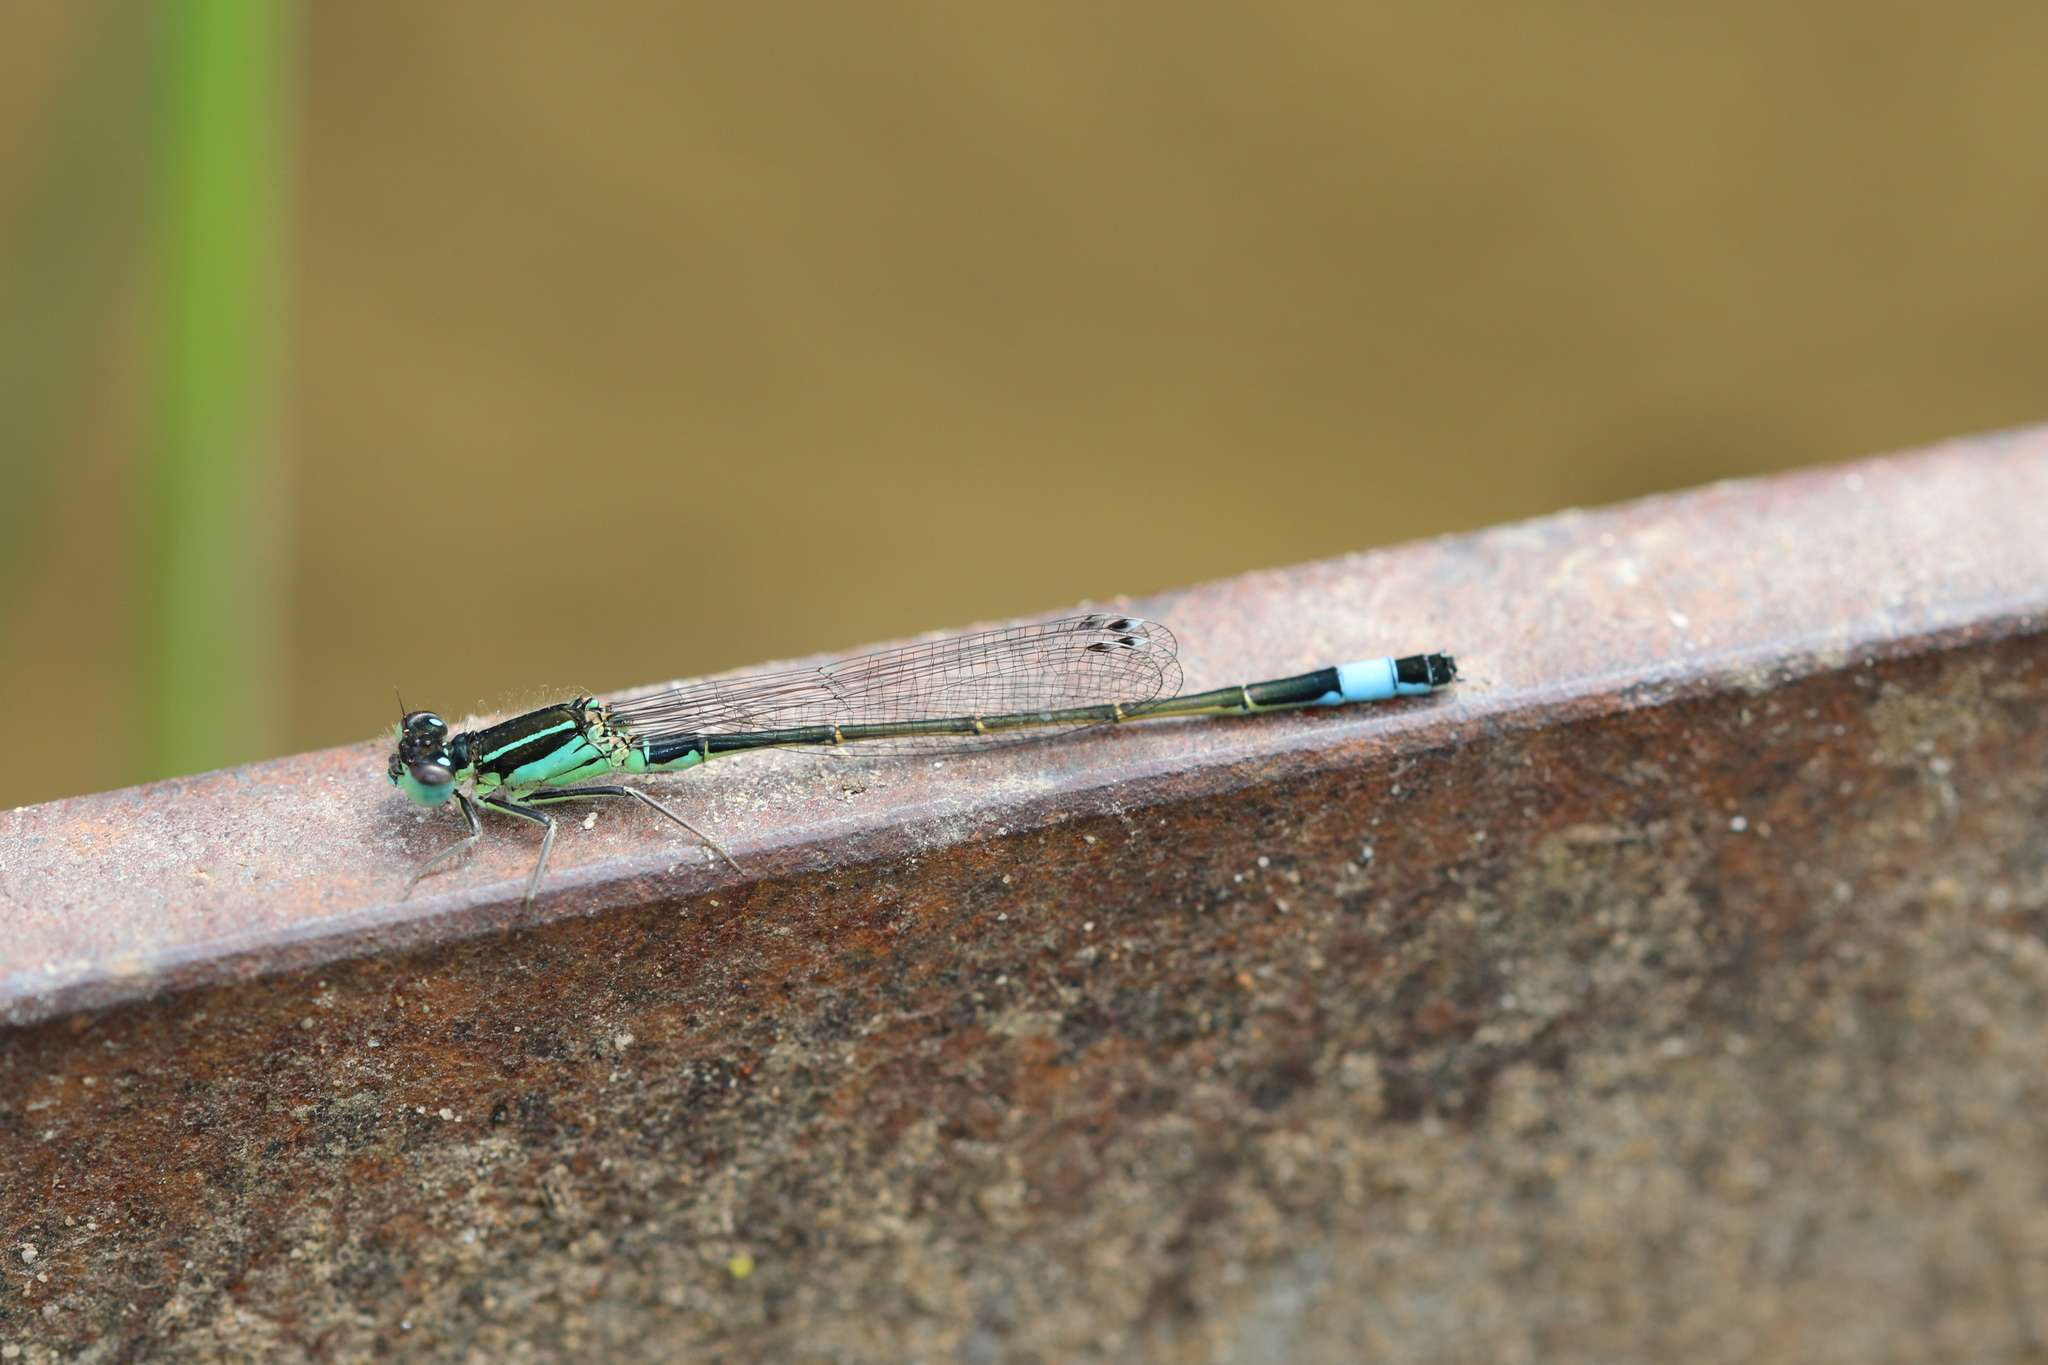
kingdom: Animalia
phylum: Arthropoda
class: Insecta
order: Odonata
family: Coenagrionidae
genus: Ischnura
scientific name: Ischnura elegans
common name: Blue-tailed damselfly
